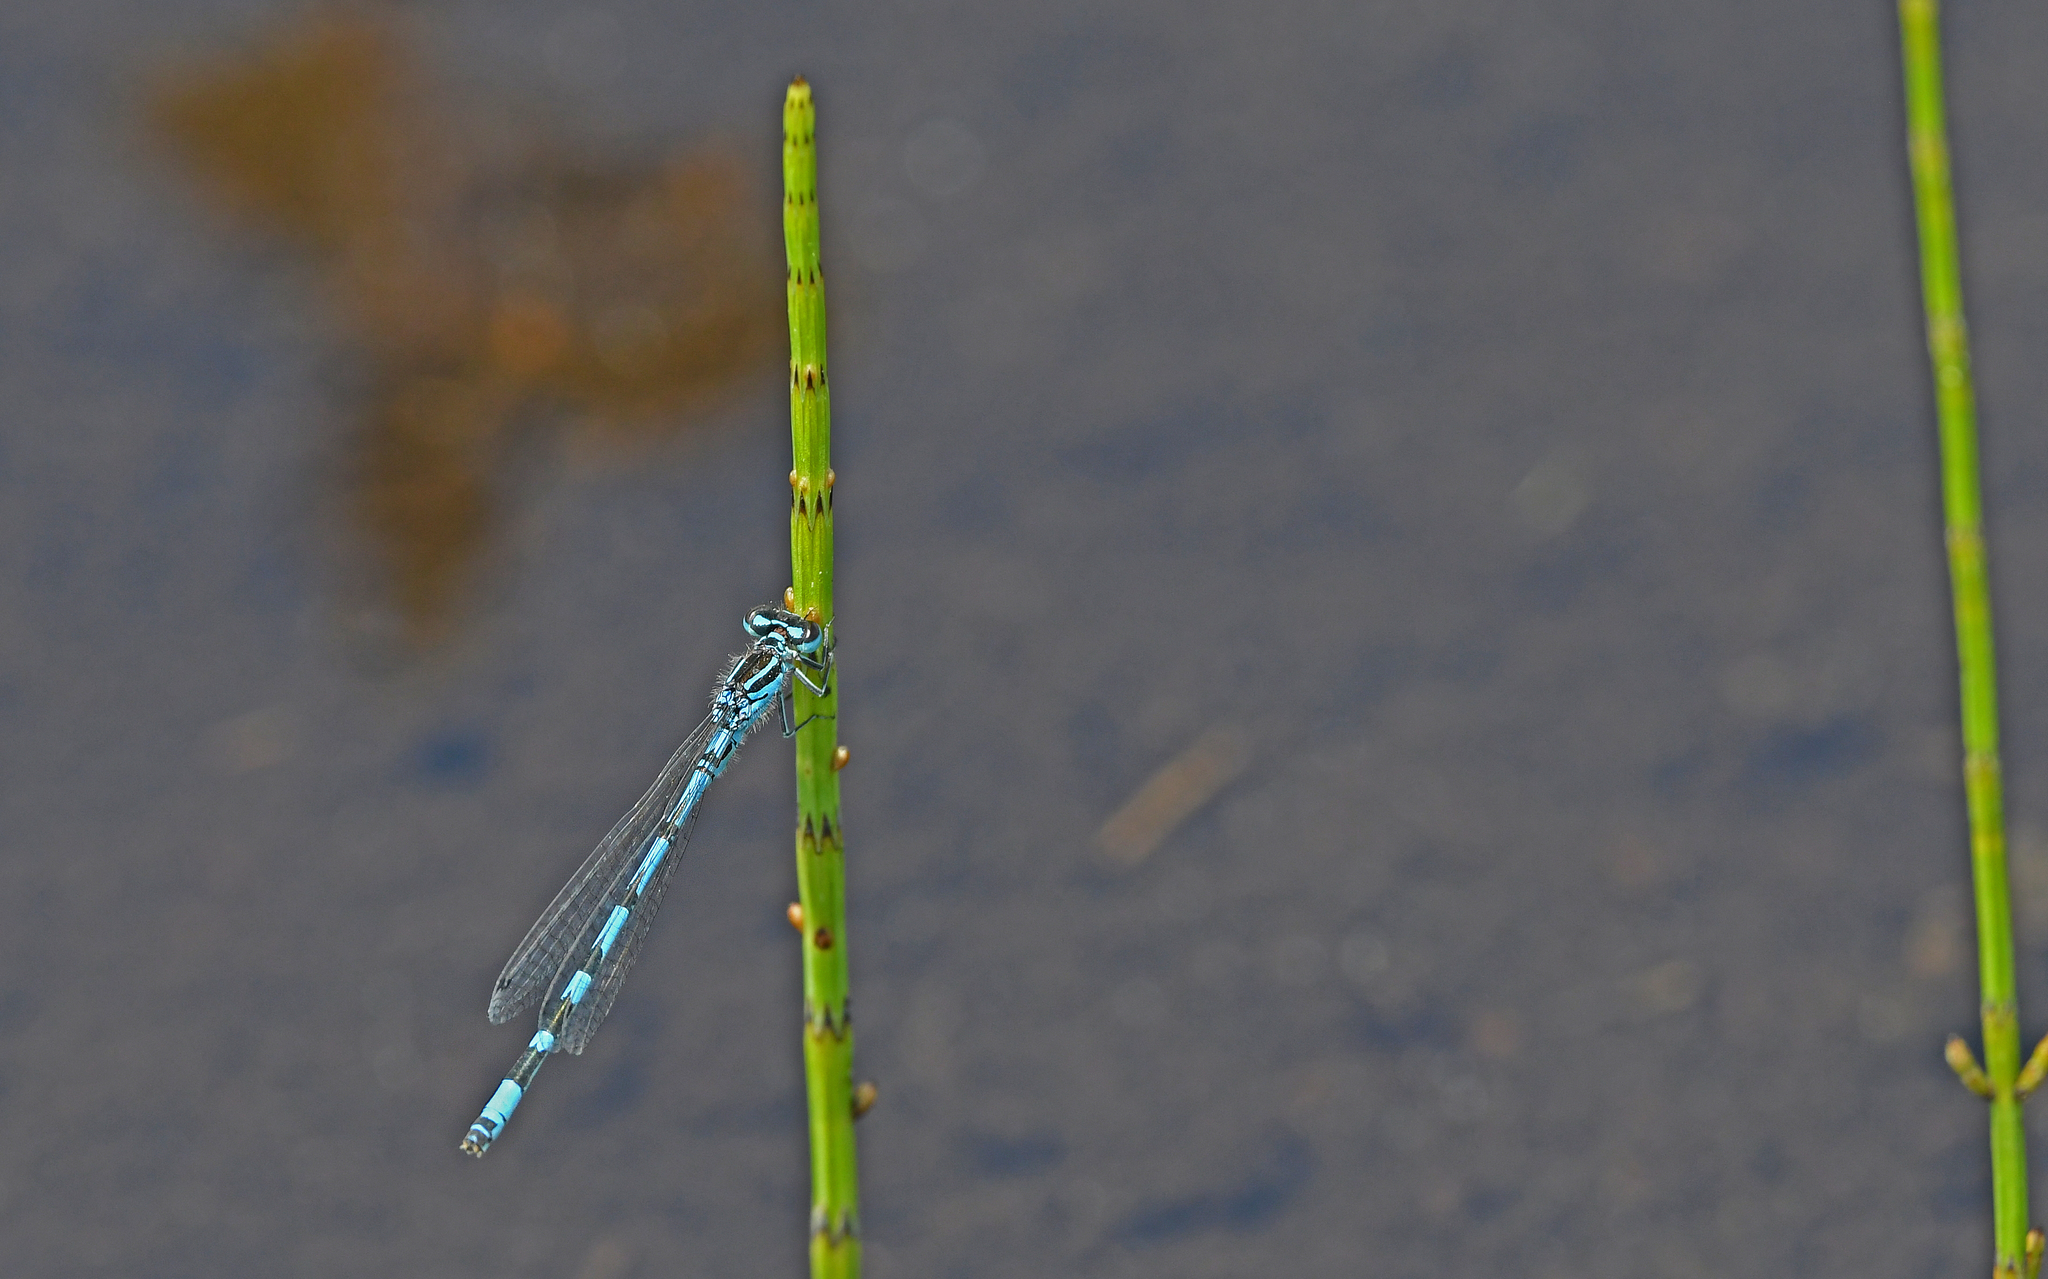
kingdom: Animalia
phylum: Arthropoda
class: Insecta
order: Odonata
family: Coenagrionidae
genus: Coenagrion
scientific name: Coenagrion ornatum
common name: Ornate bluet
